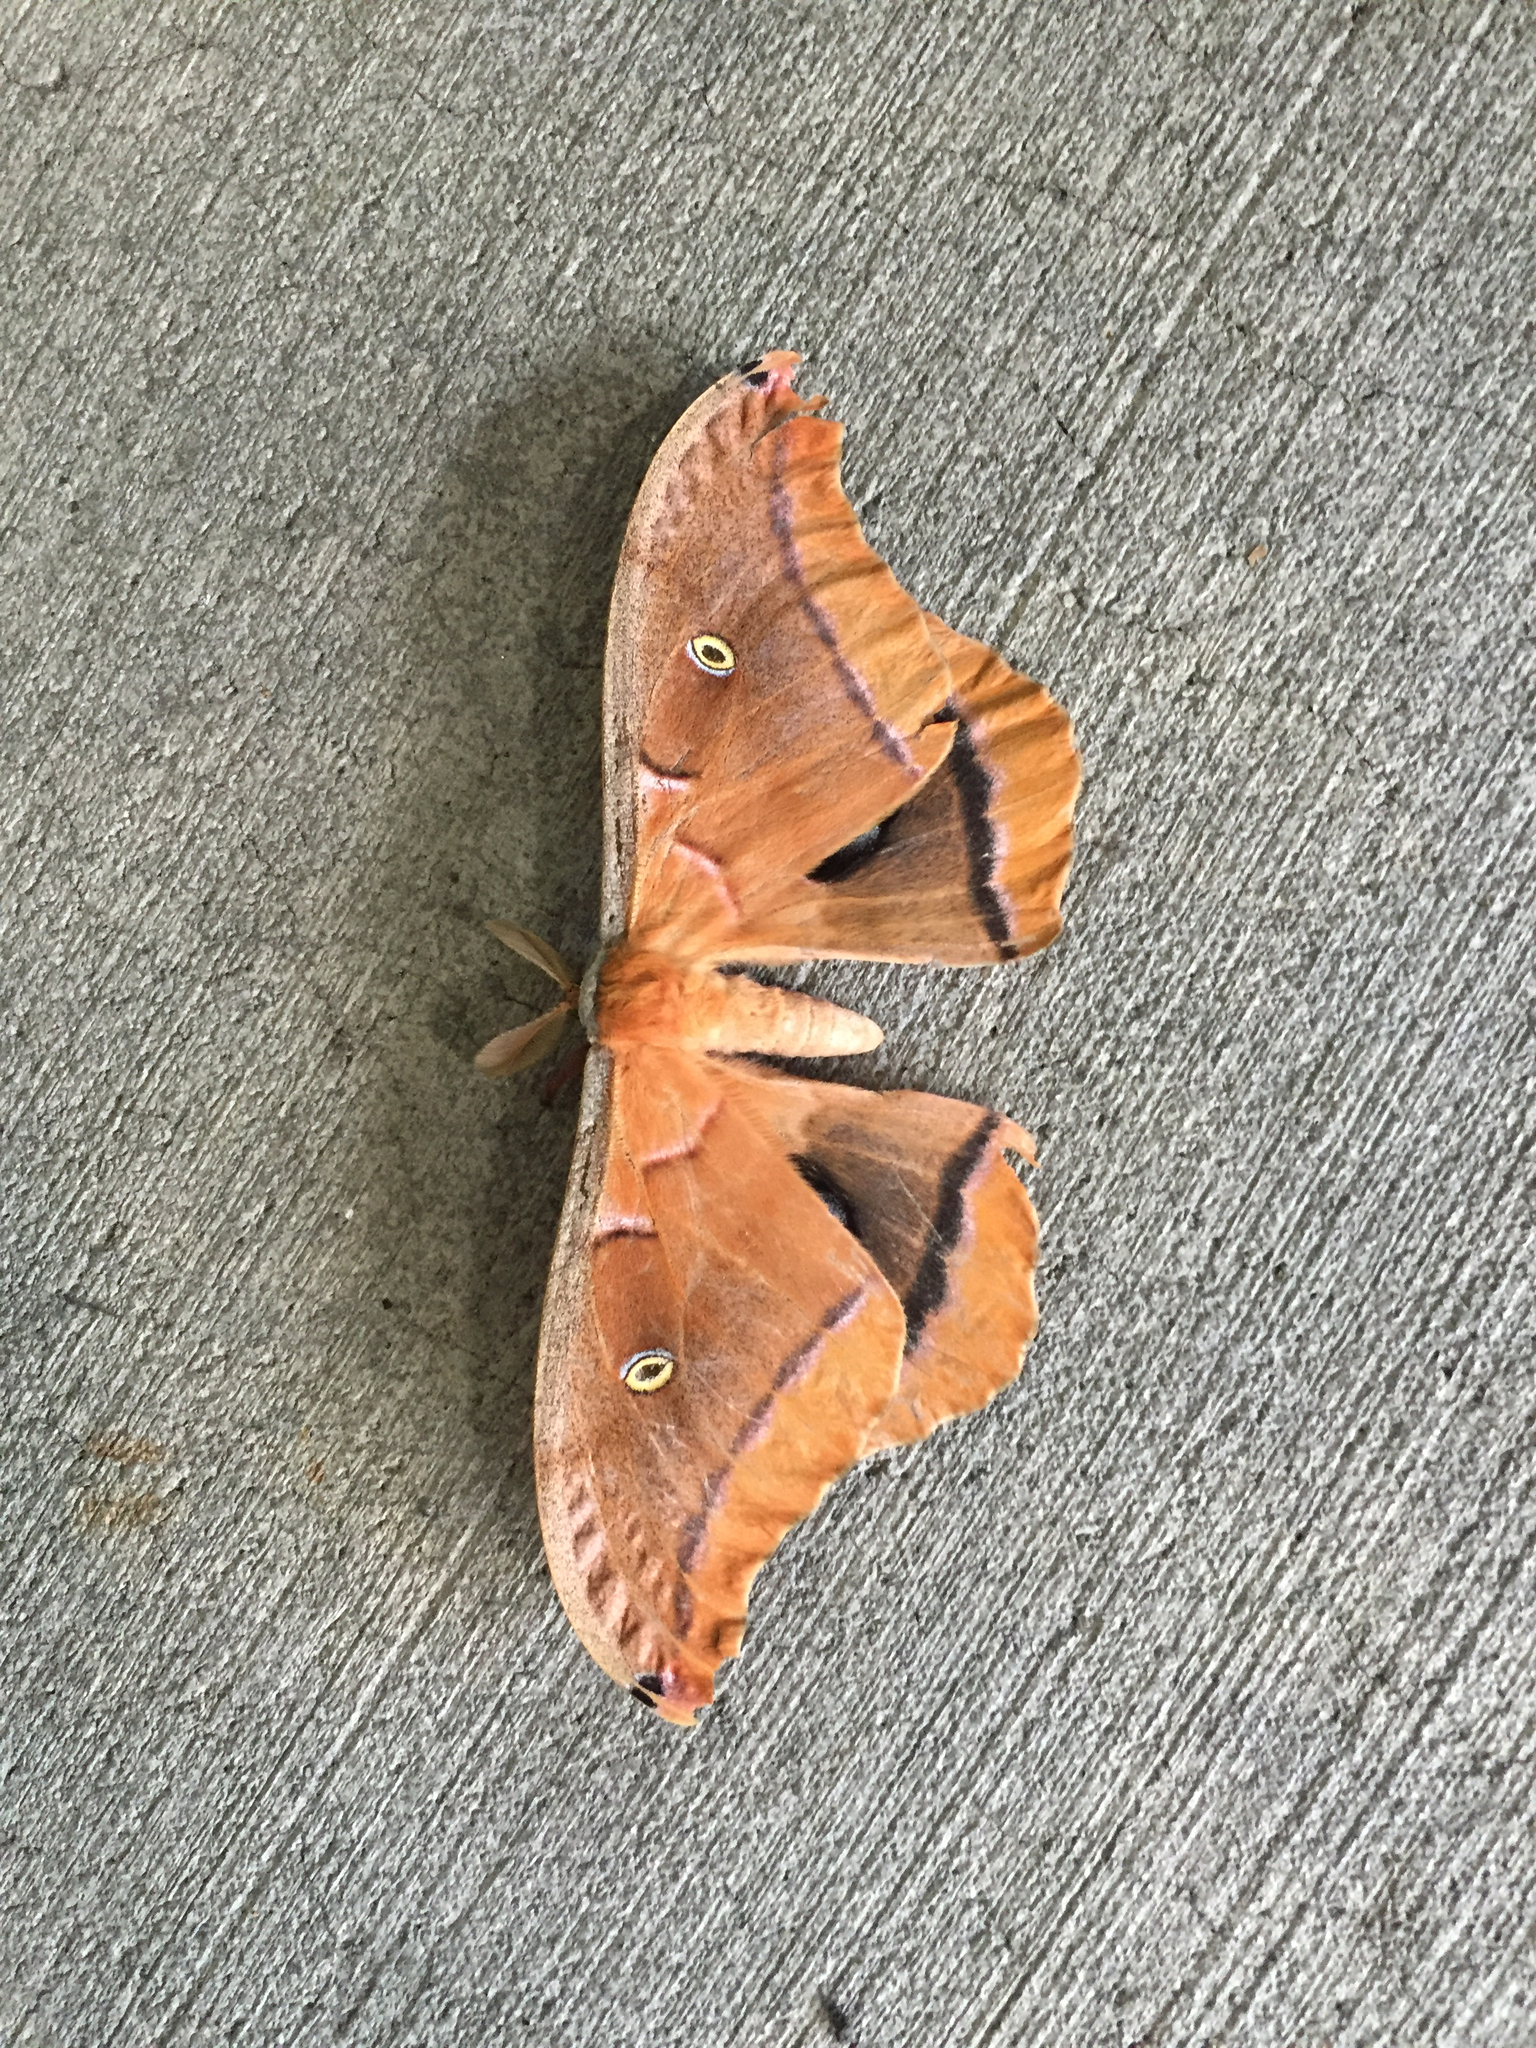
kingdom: Animalia
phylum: Arthropoda
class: Insecta
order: Lepidoptera
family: Saturniidae
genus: Antheraea
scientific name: Antheraea polyphemus
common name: Polyphemus moth
